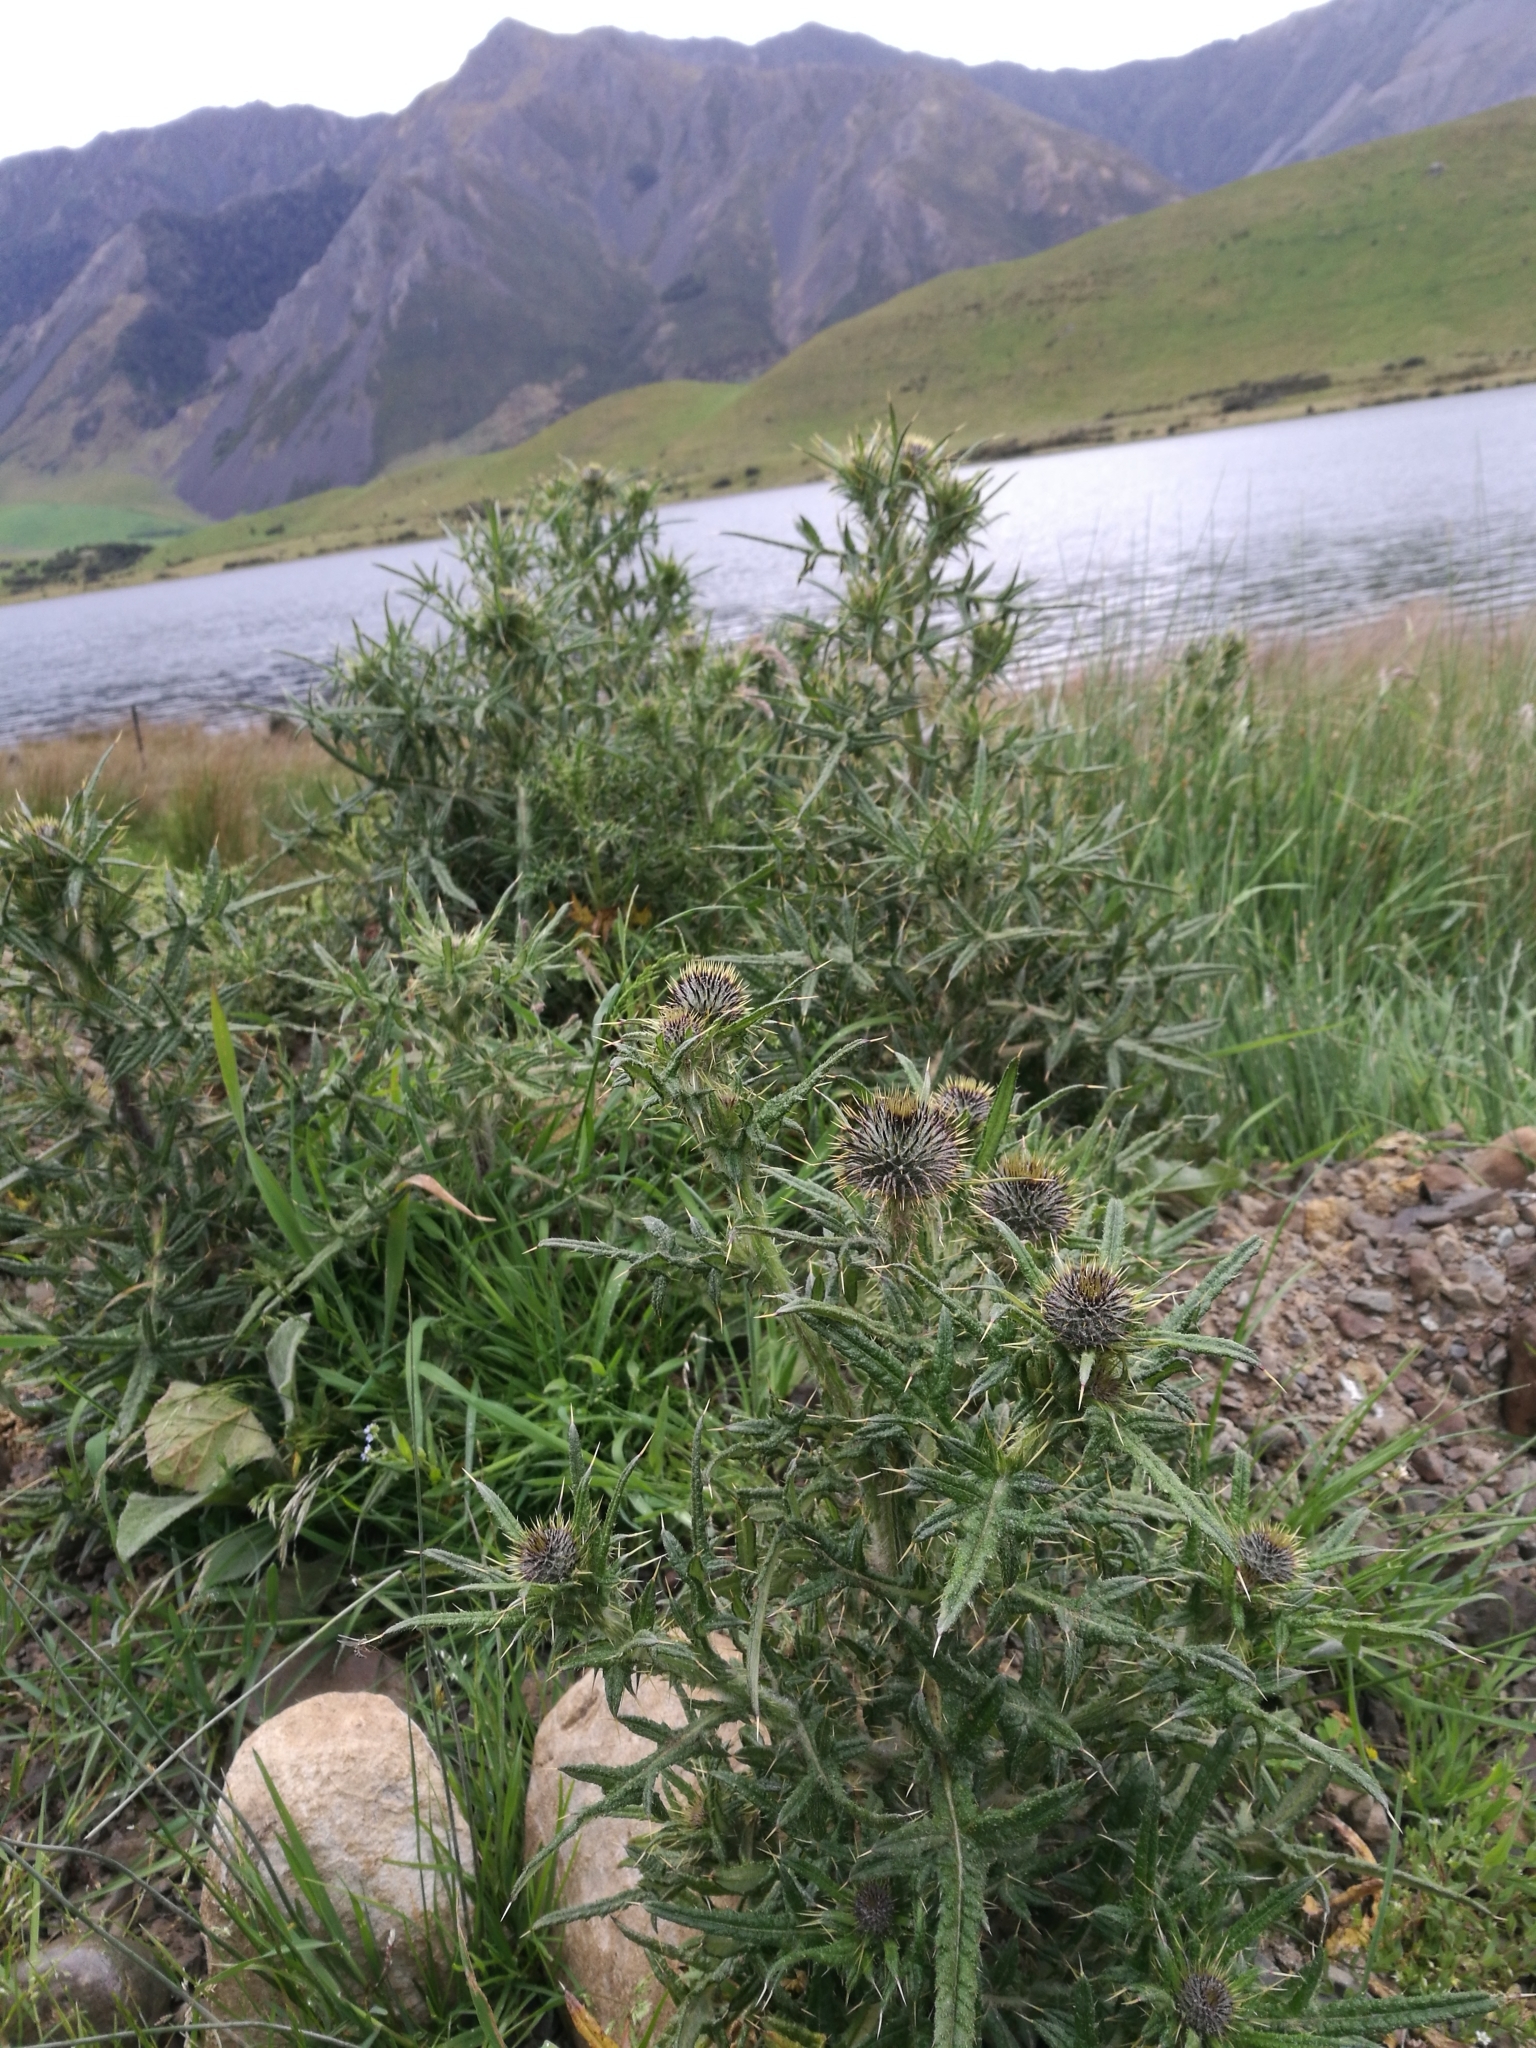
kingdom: Plantae
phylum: Tracheophyta
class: Magnoliopsida
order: Asterales
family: Asteraceae
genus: Cirsium
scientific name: Cirsium vulgare
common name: Bull thistle
